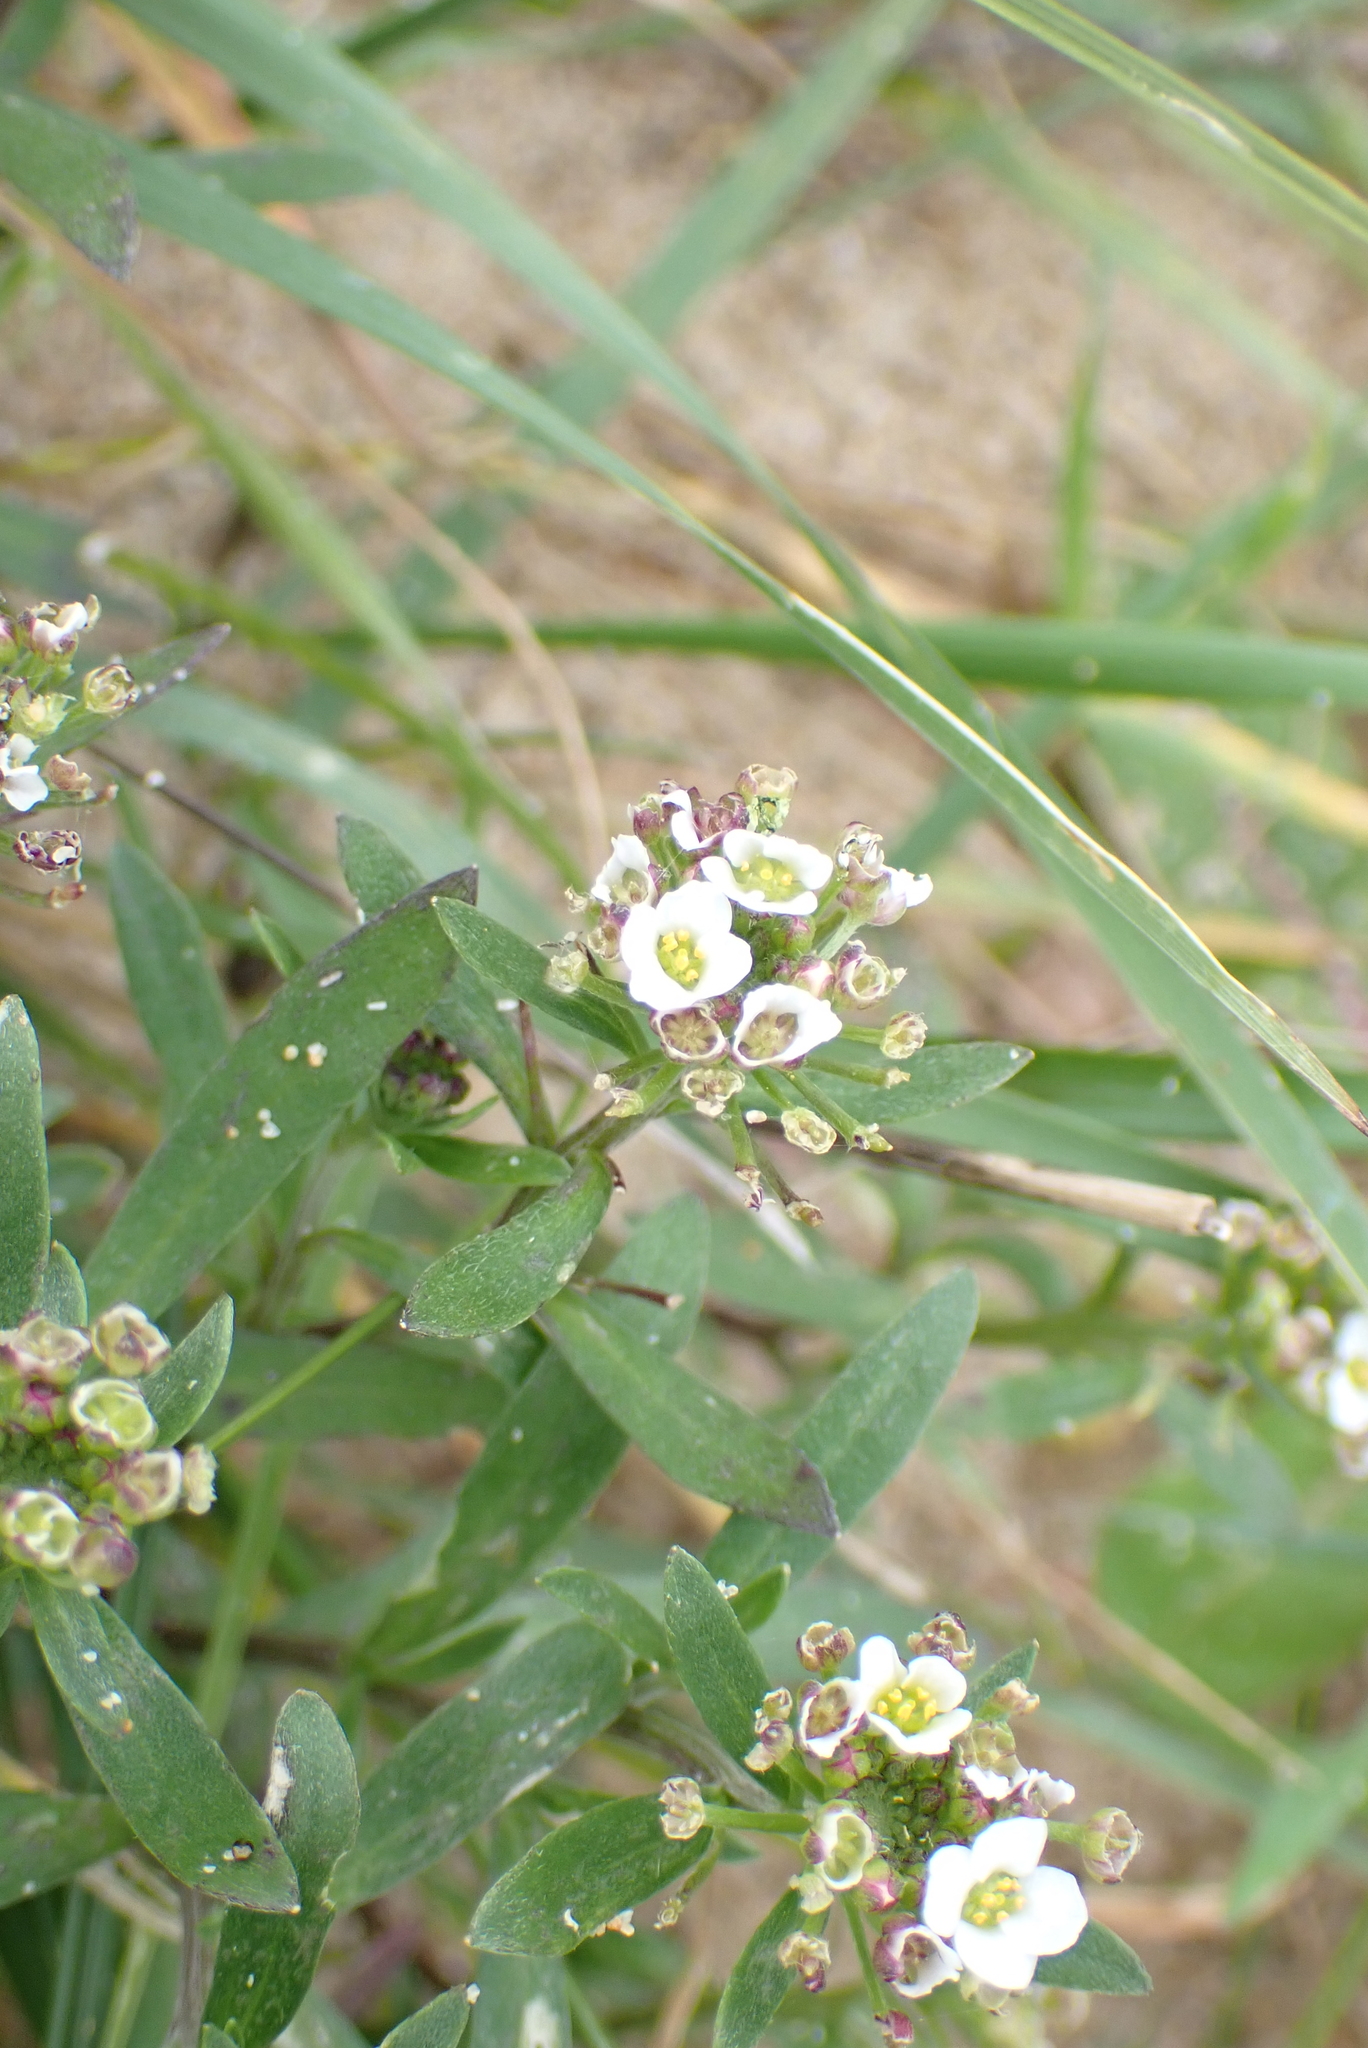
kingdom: Plantae
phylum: Tracheophyta
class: Magnoliopsida
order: Brassicales
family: Brassicaceae
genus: Lobularia
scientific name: Lobularia maritima
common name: Sweet alison
